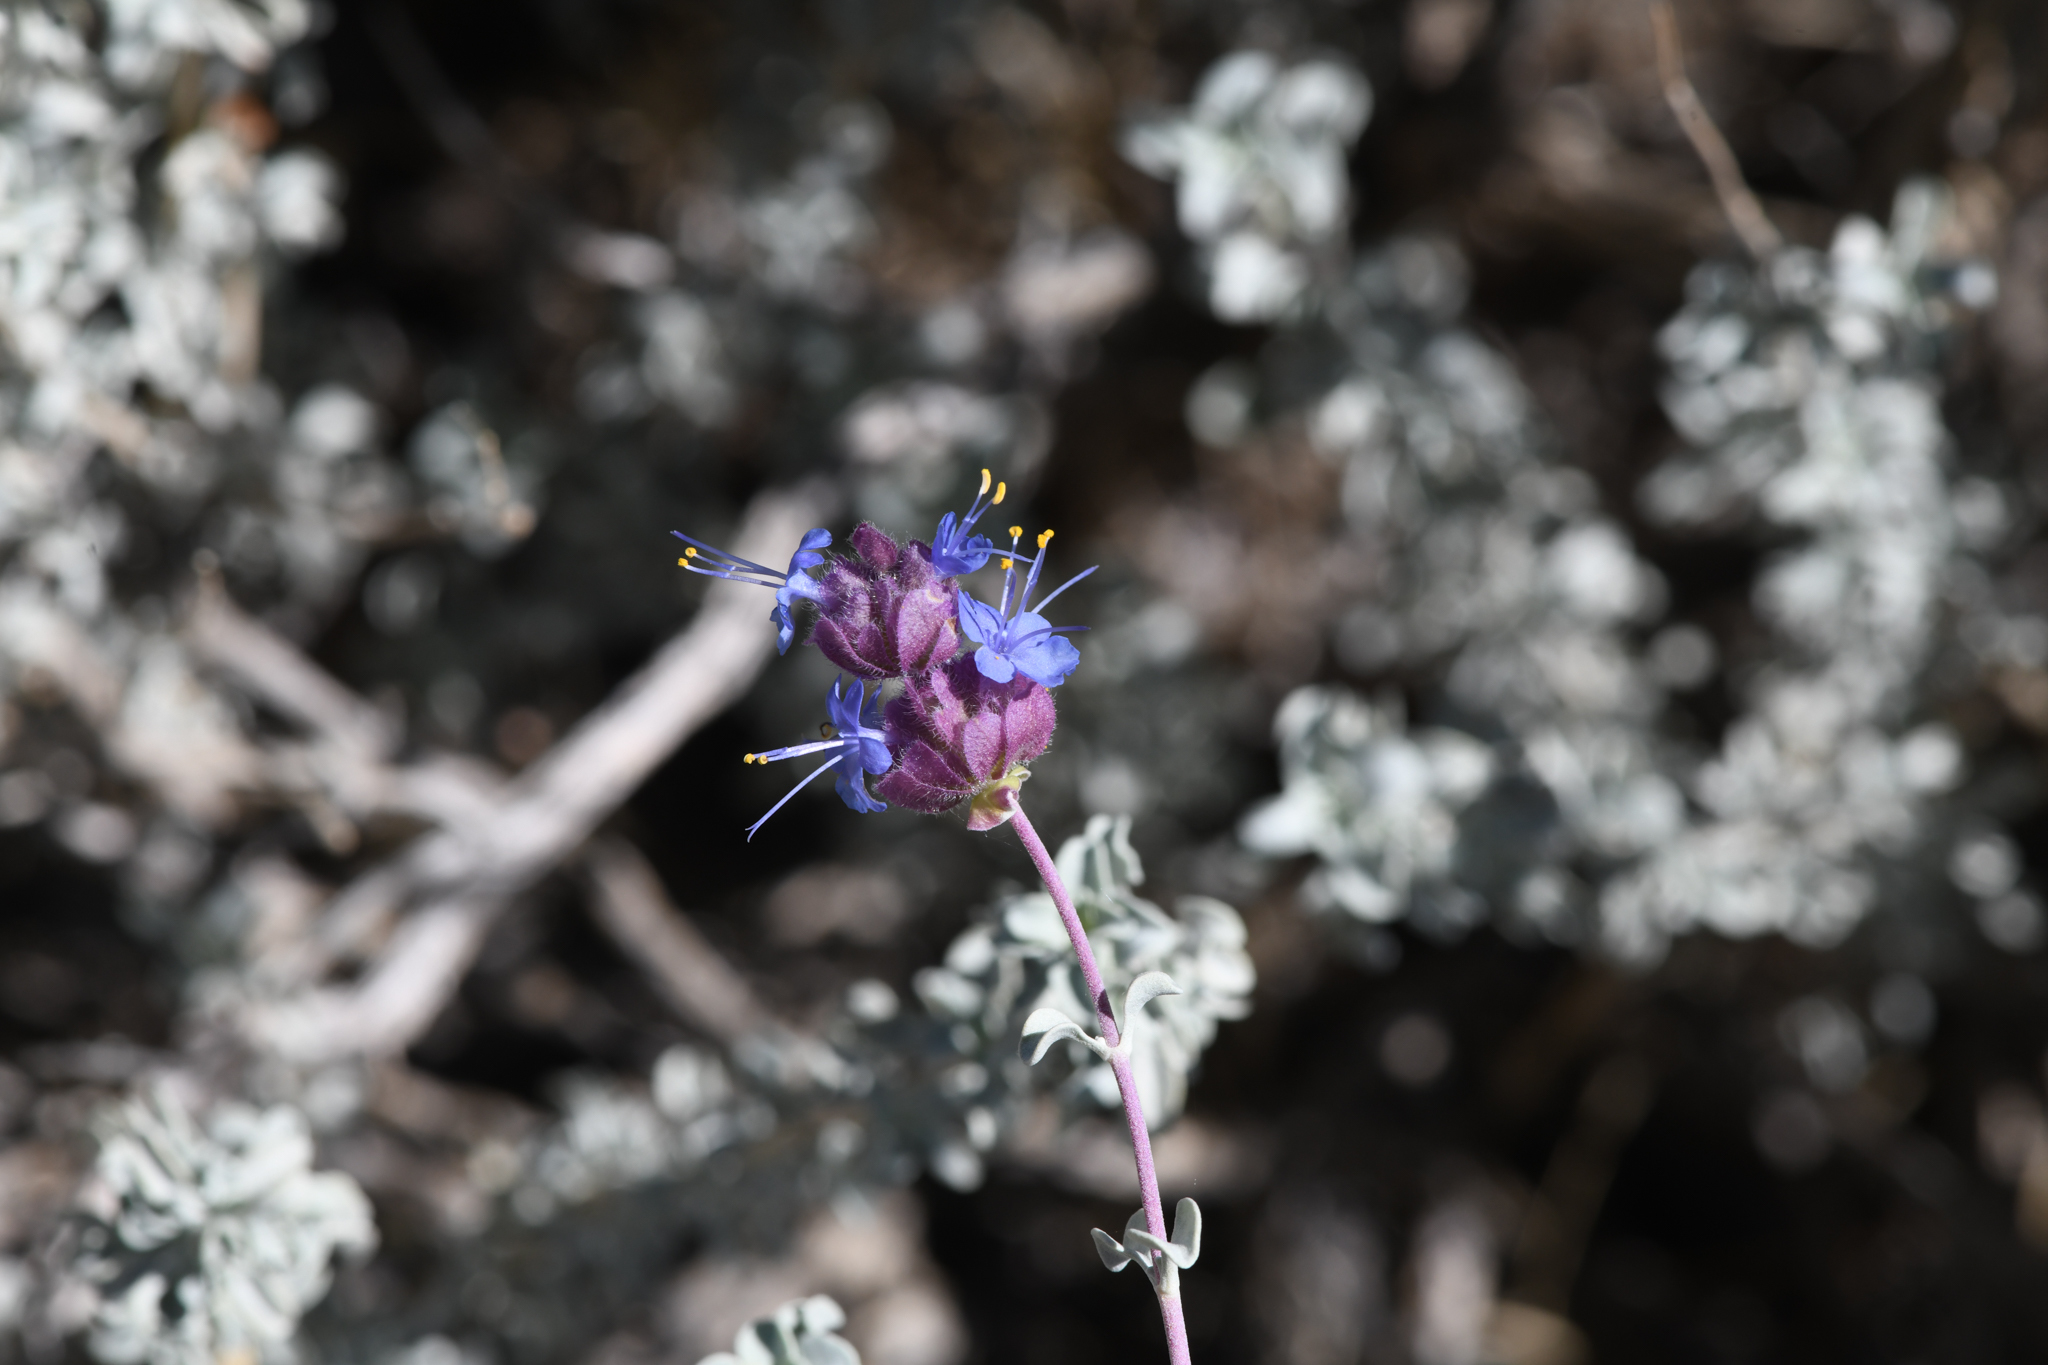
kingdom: Plantae
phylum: Tracheophyta
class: Magnoliopsida
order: Lamiales
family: Lamiaceae
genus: Salvia
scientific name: Salvia dorrii
